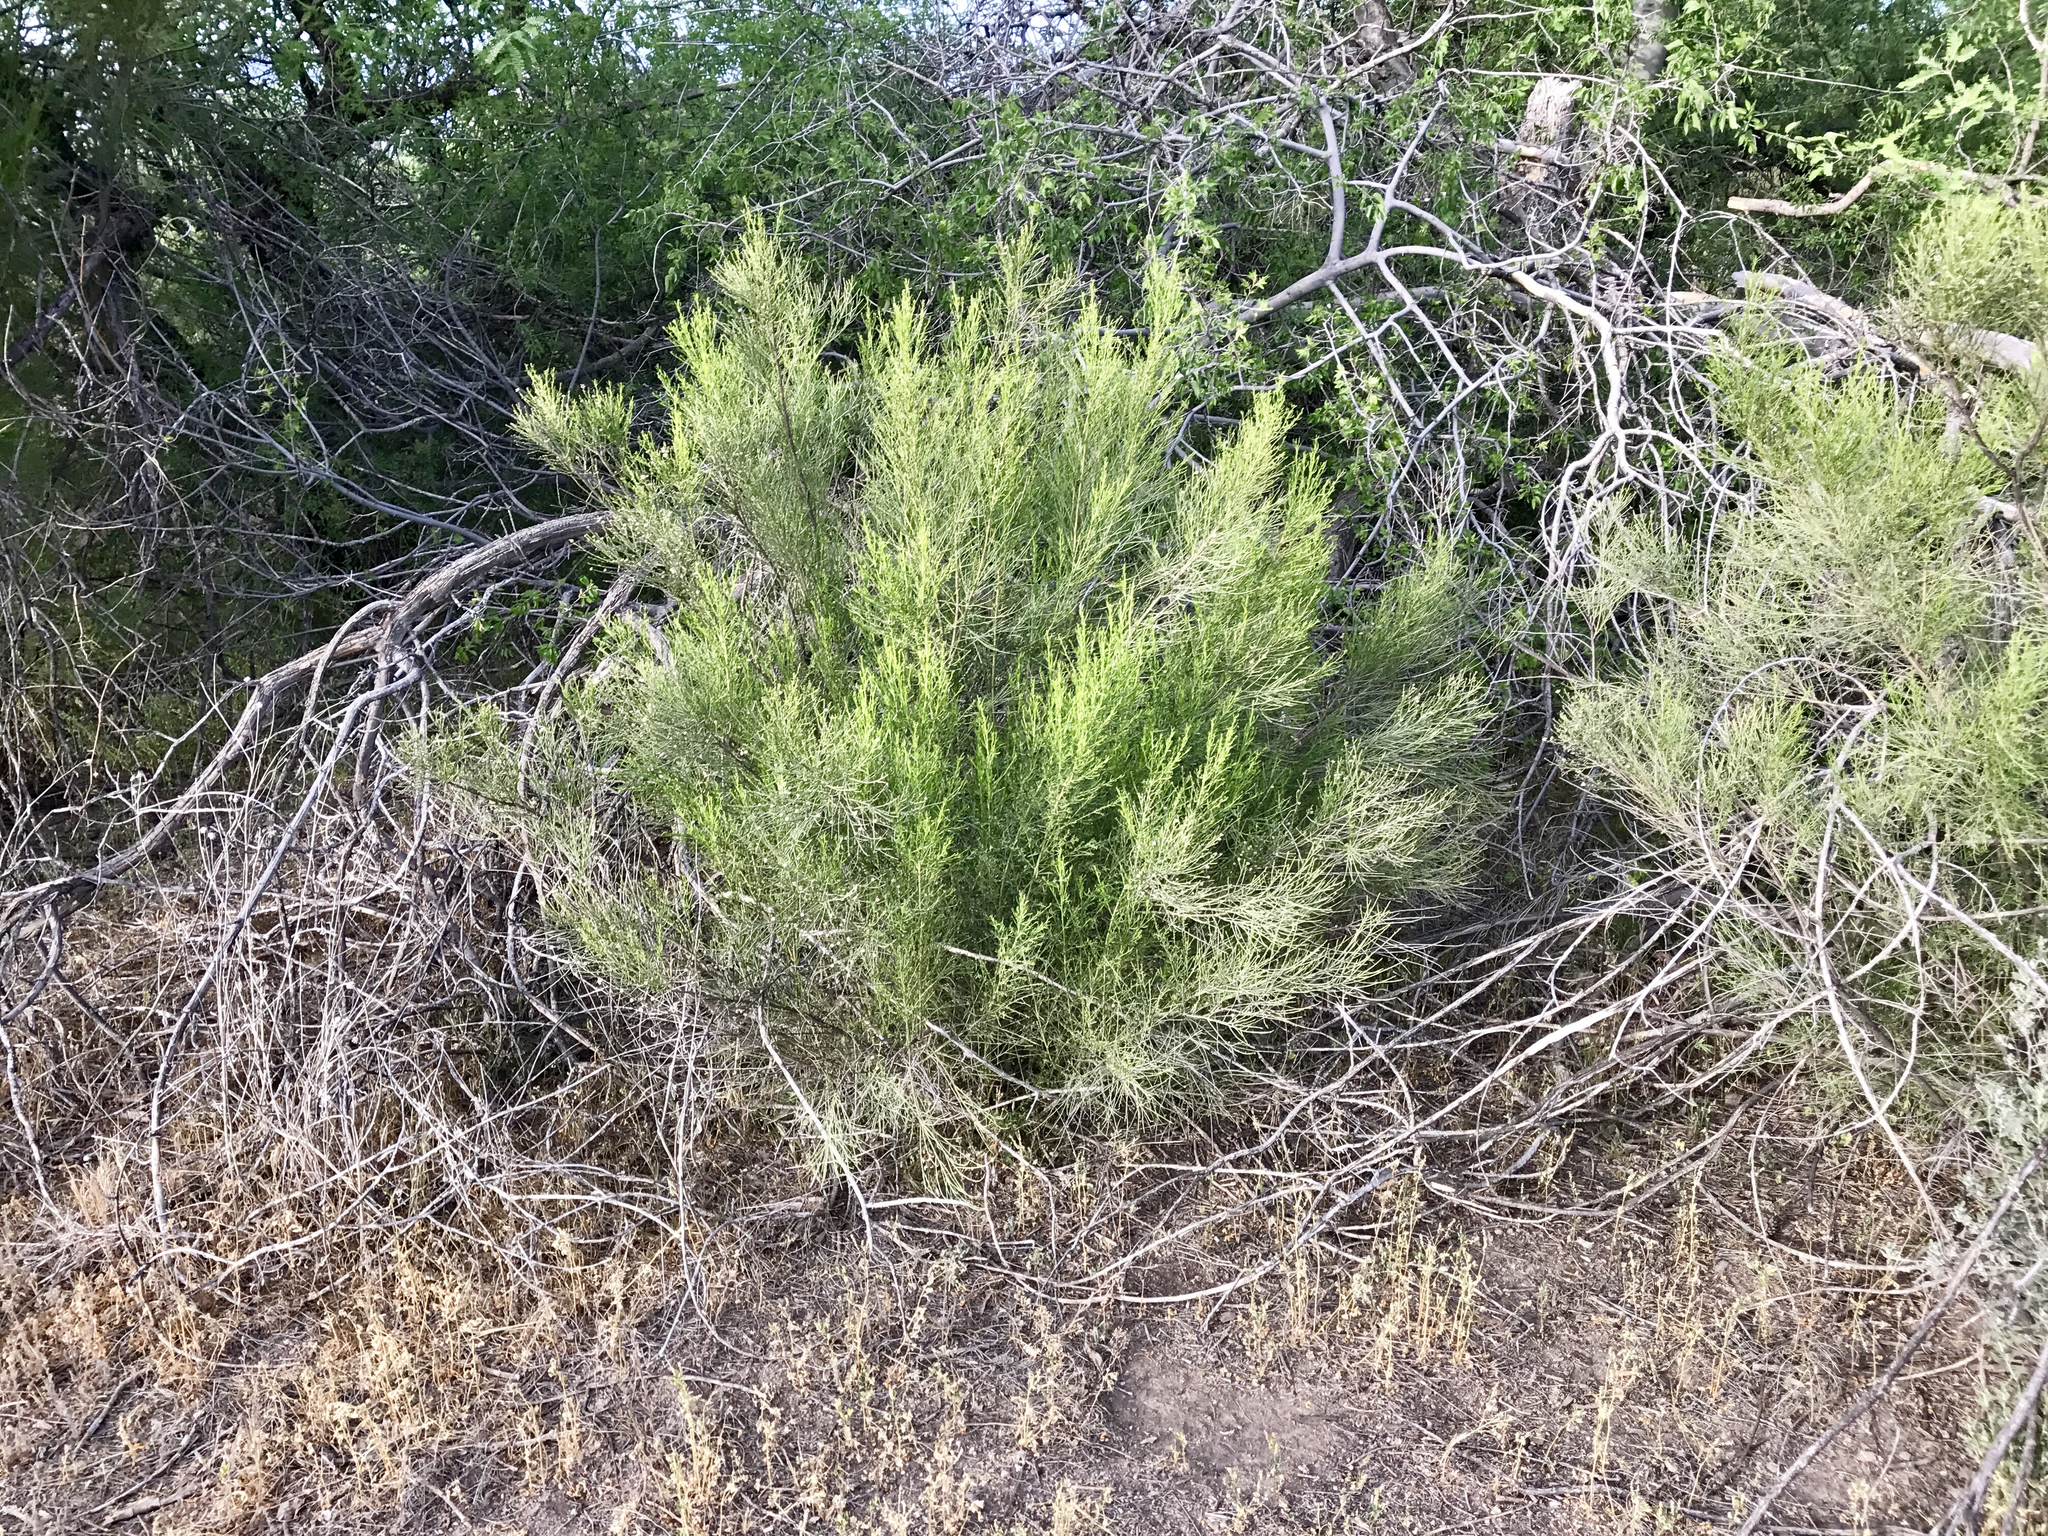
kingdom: Plantae
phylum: Tracheophyta
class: Magnoliopsida
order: Asterales
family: Asteraceae
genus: Baccharis
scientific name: Baccharis sarothroides
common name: Desert-broom
